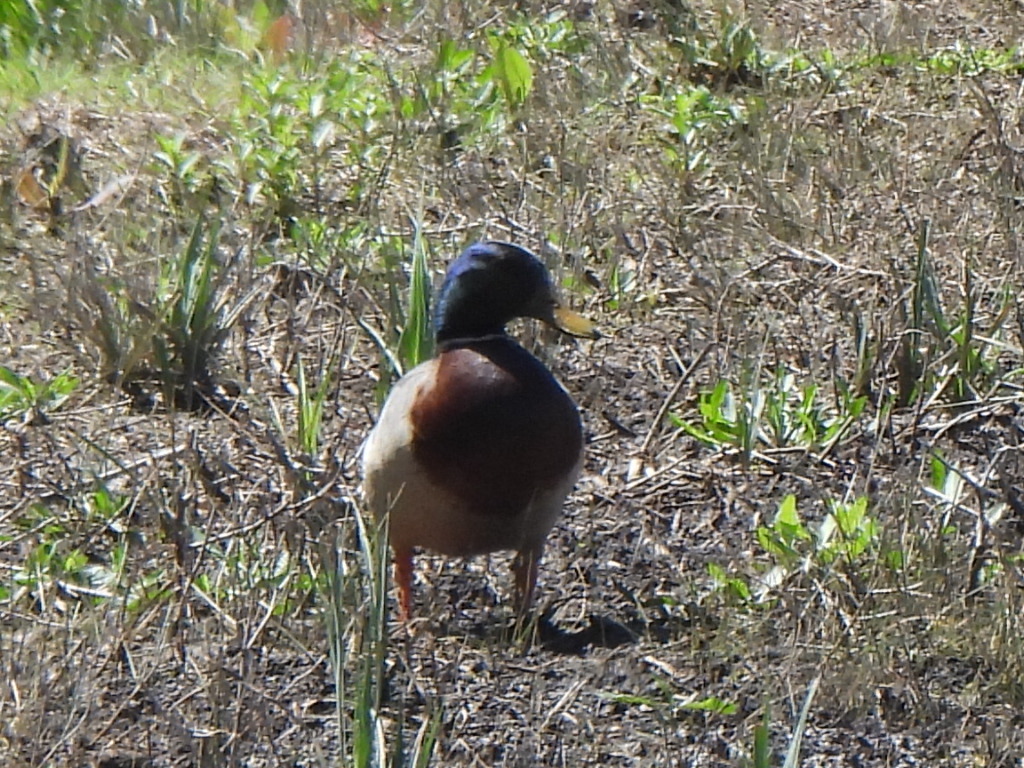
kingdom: Animalia
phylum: Chordata
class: Aves
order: Anseriformes
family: Anatidae
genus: Anas
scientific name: Anas platyrhynchos
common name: Mallard
